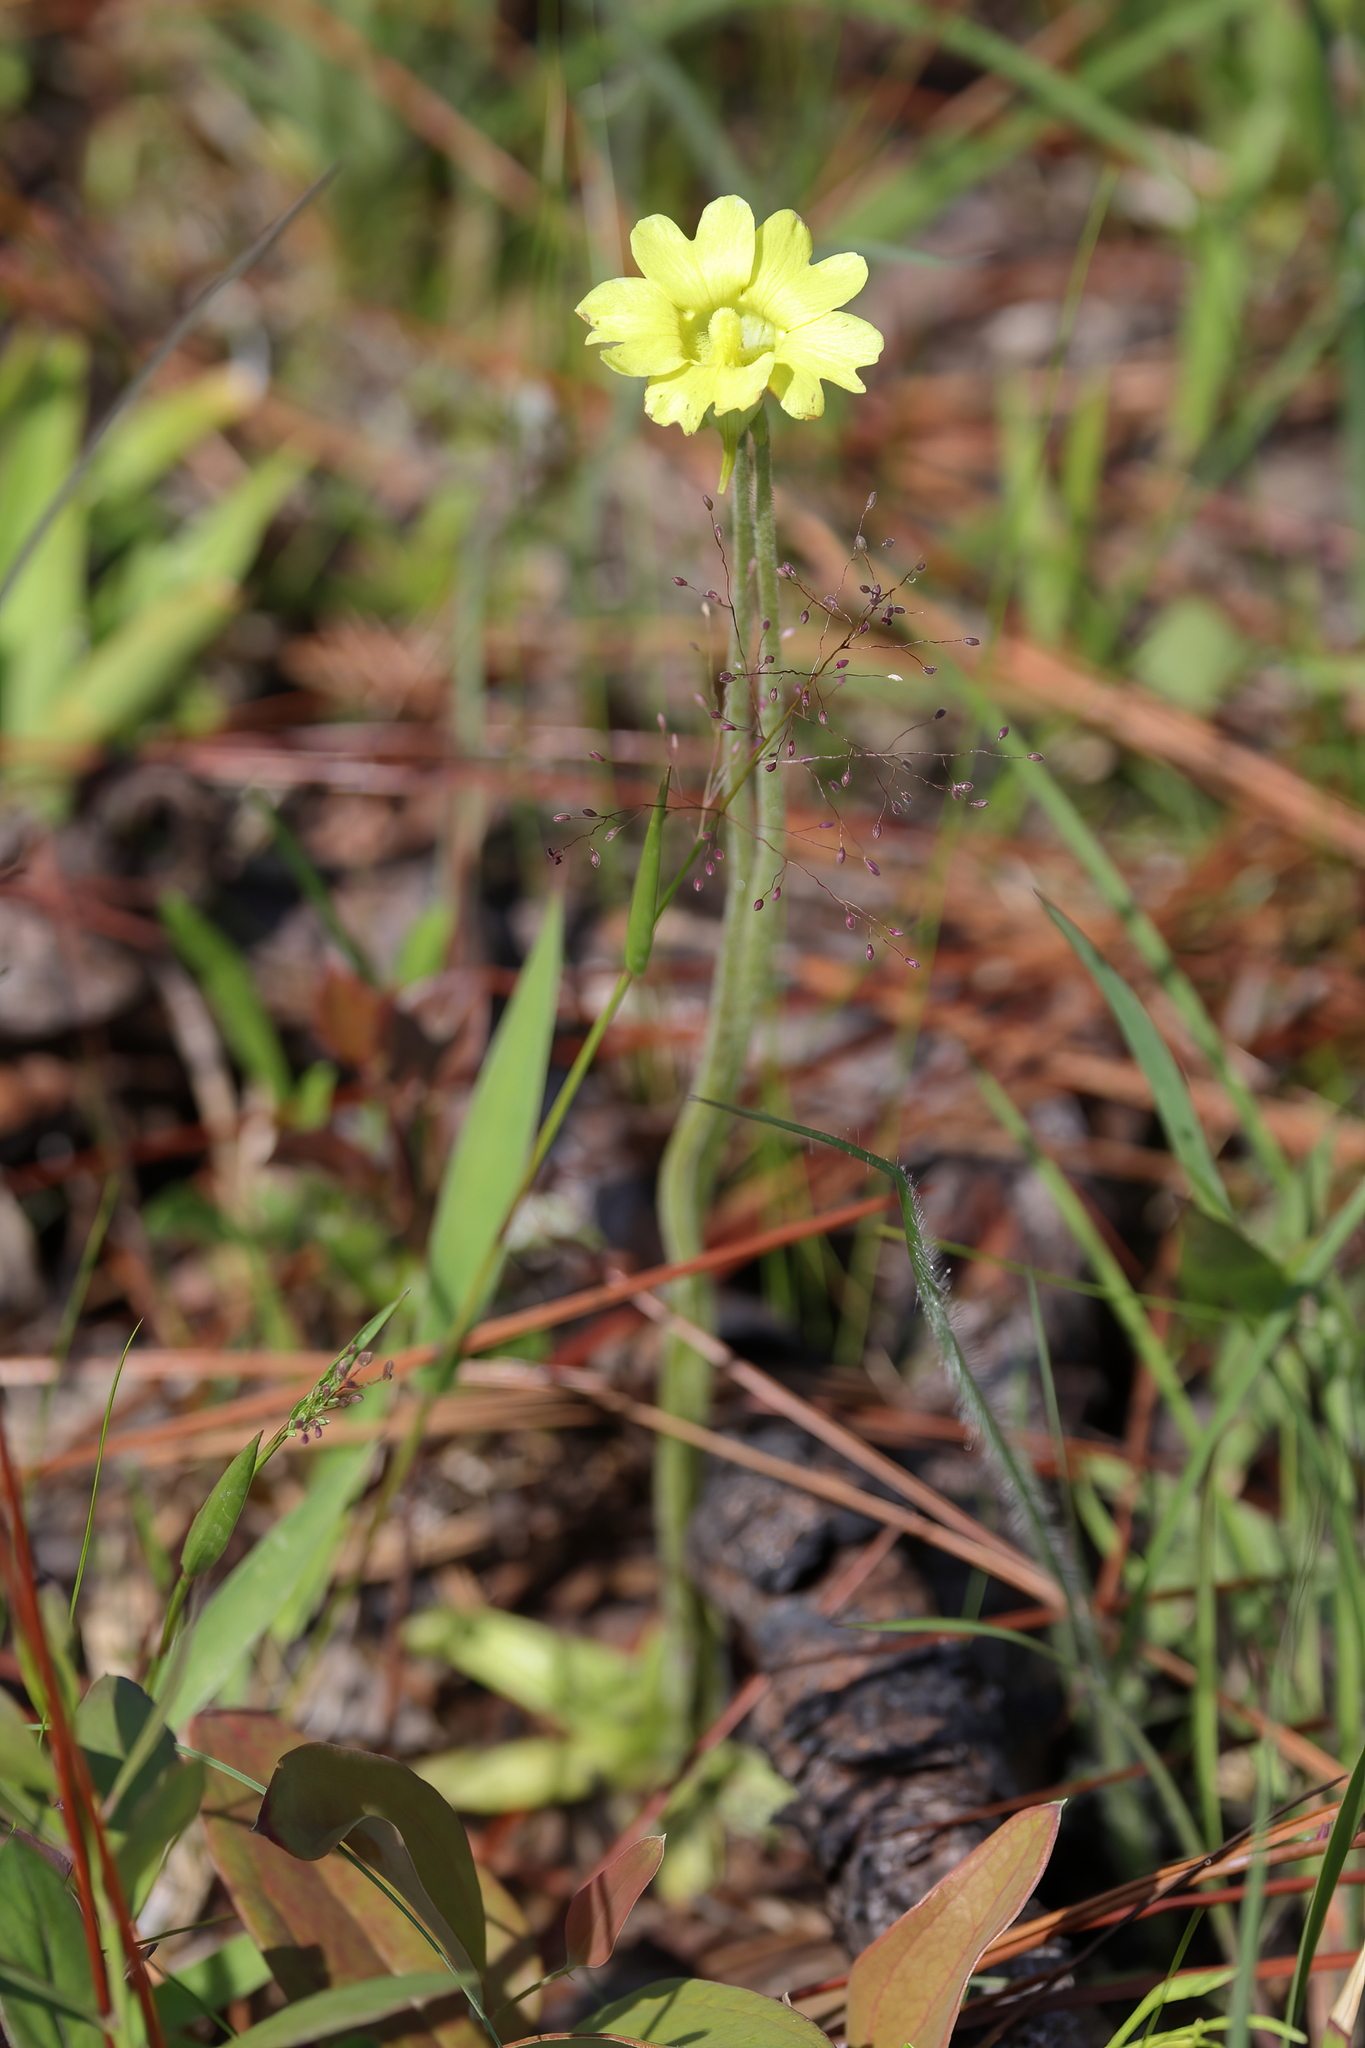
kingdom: Plantae
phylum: Tracheophyta
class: Magnoliopsida
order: Lamiales
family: Lentibulariaceae
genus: Pinguicula
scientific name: Pinguicula lutea
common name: Yellow butterwort
